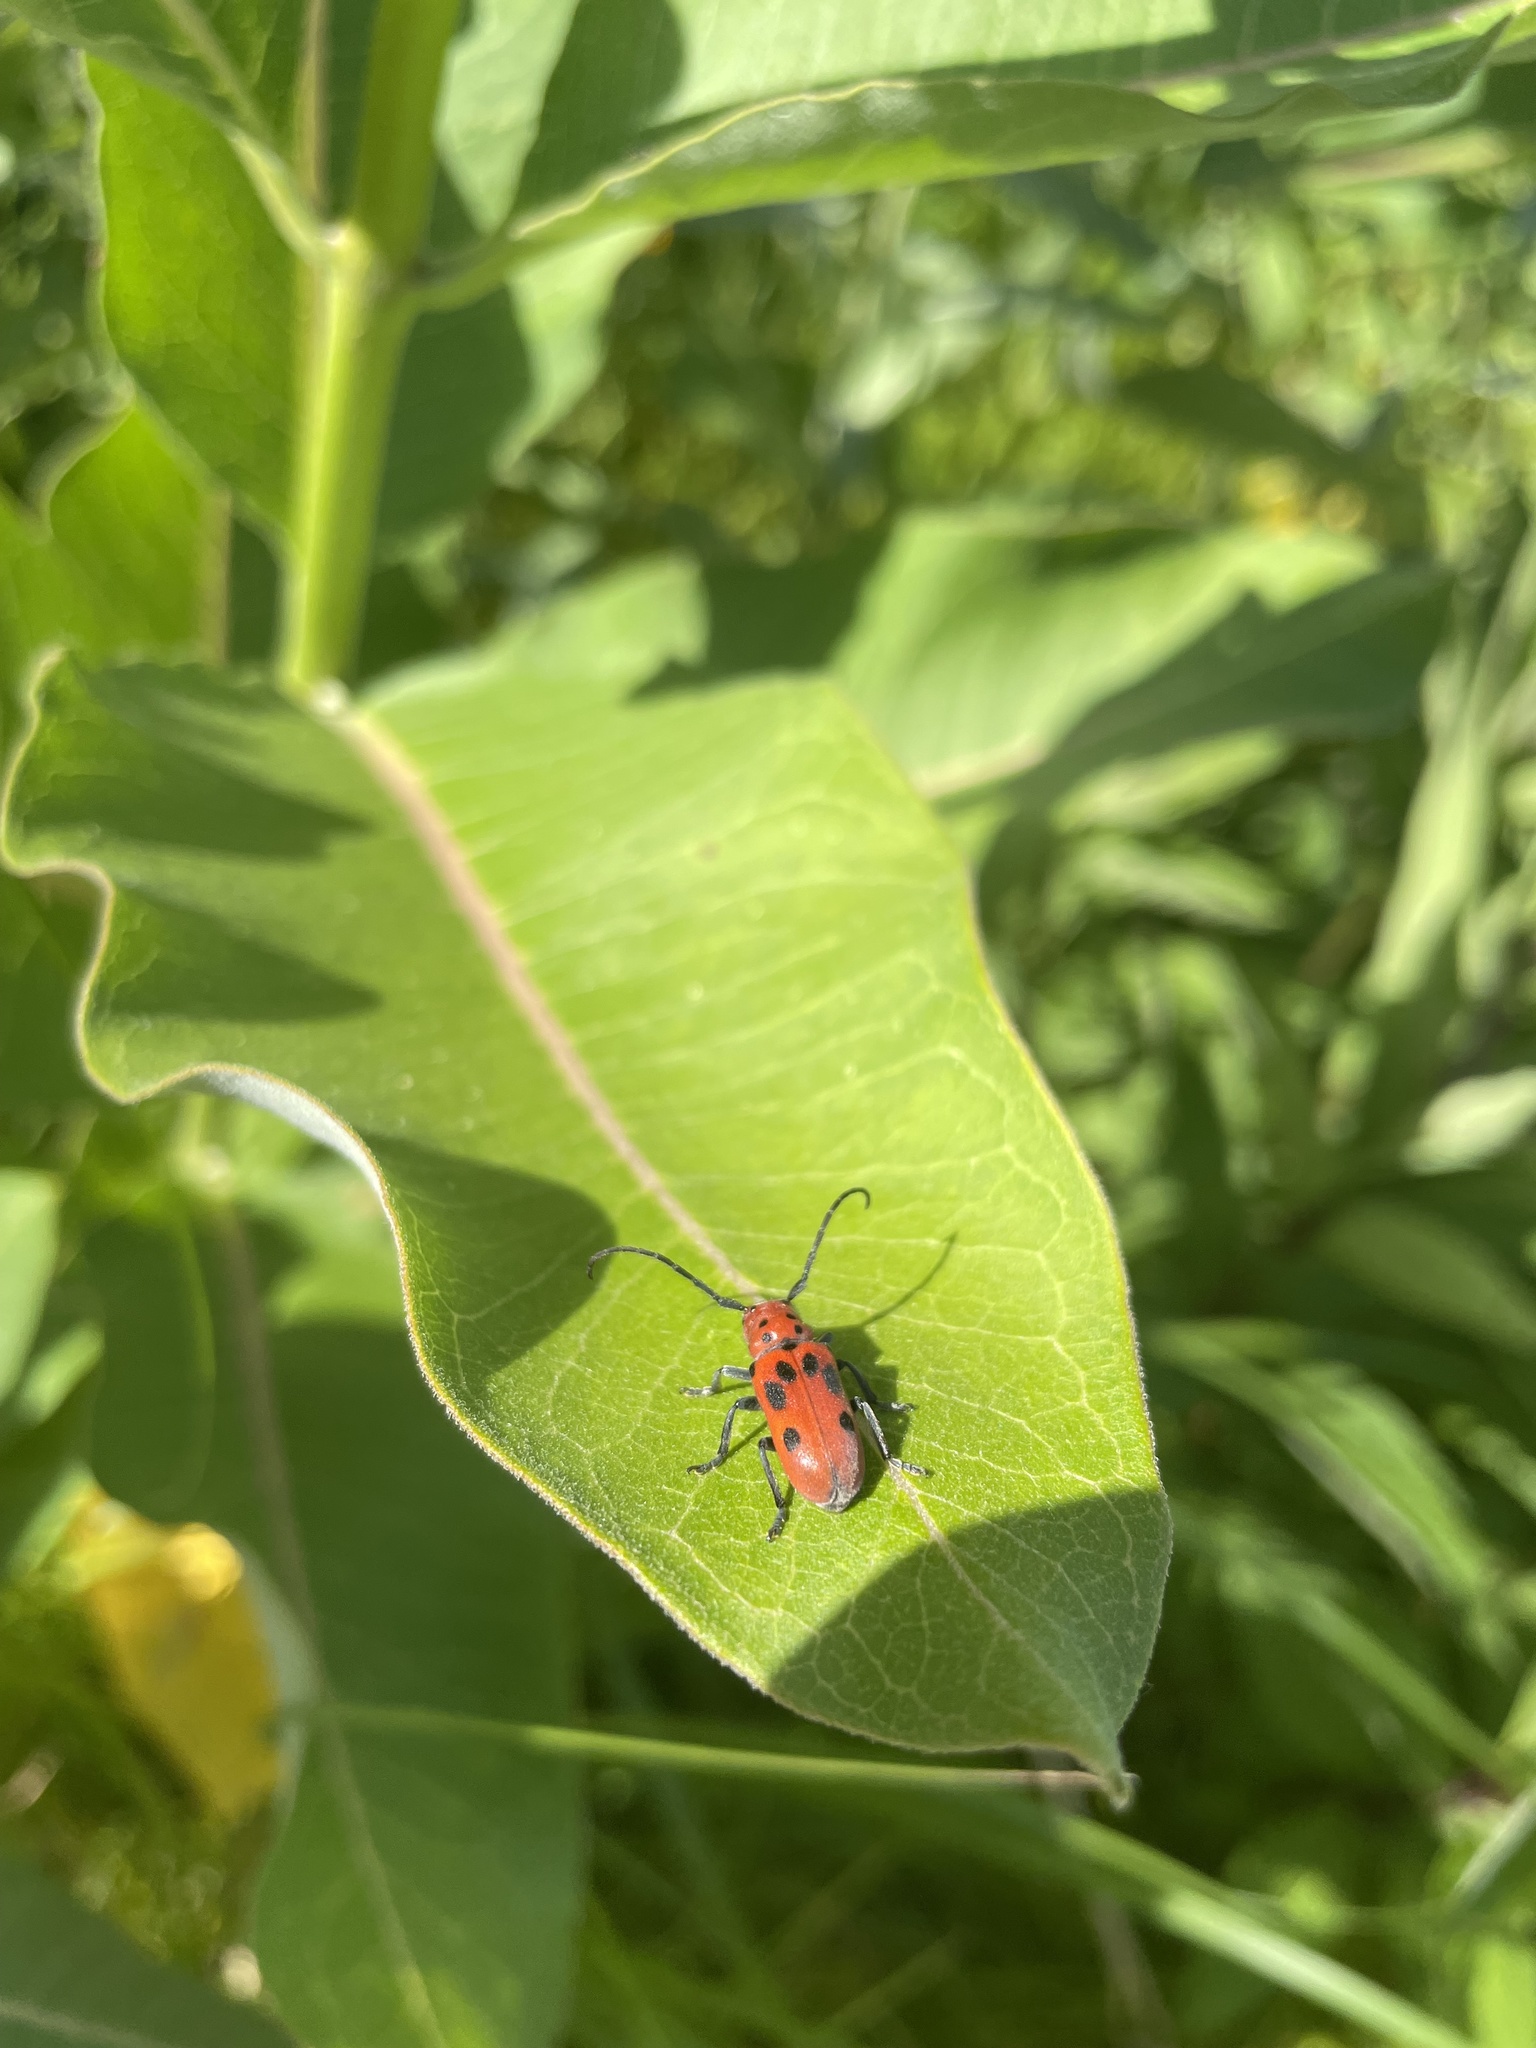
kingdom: Animalia
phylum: Arthropoda
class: Insecta
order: Coleoptera
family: Cerambycidae
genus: Tetraopes
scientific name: Tetraopes tetrophthalmus
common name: Red milkweed beetle
